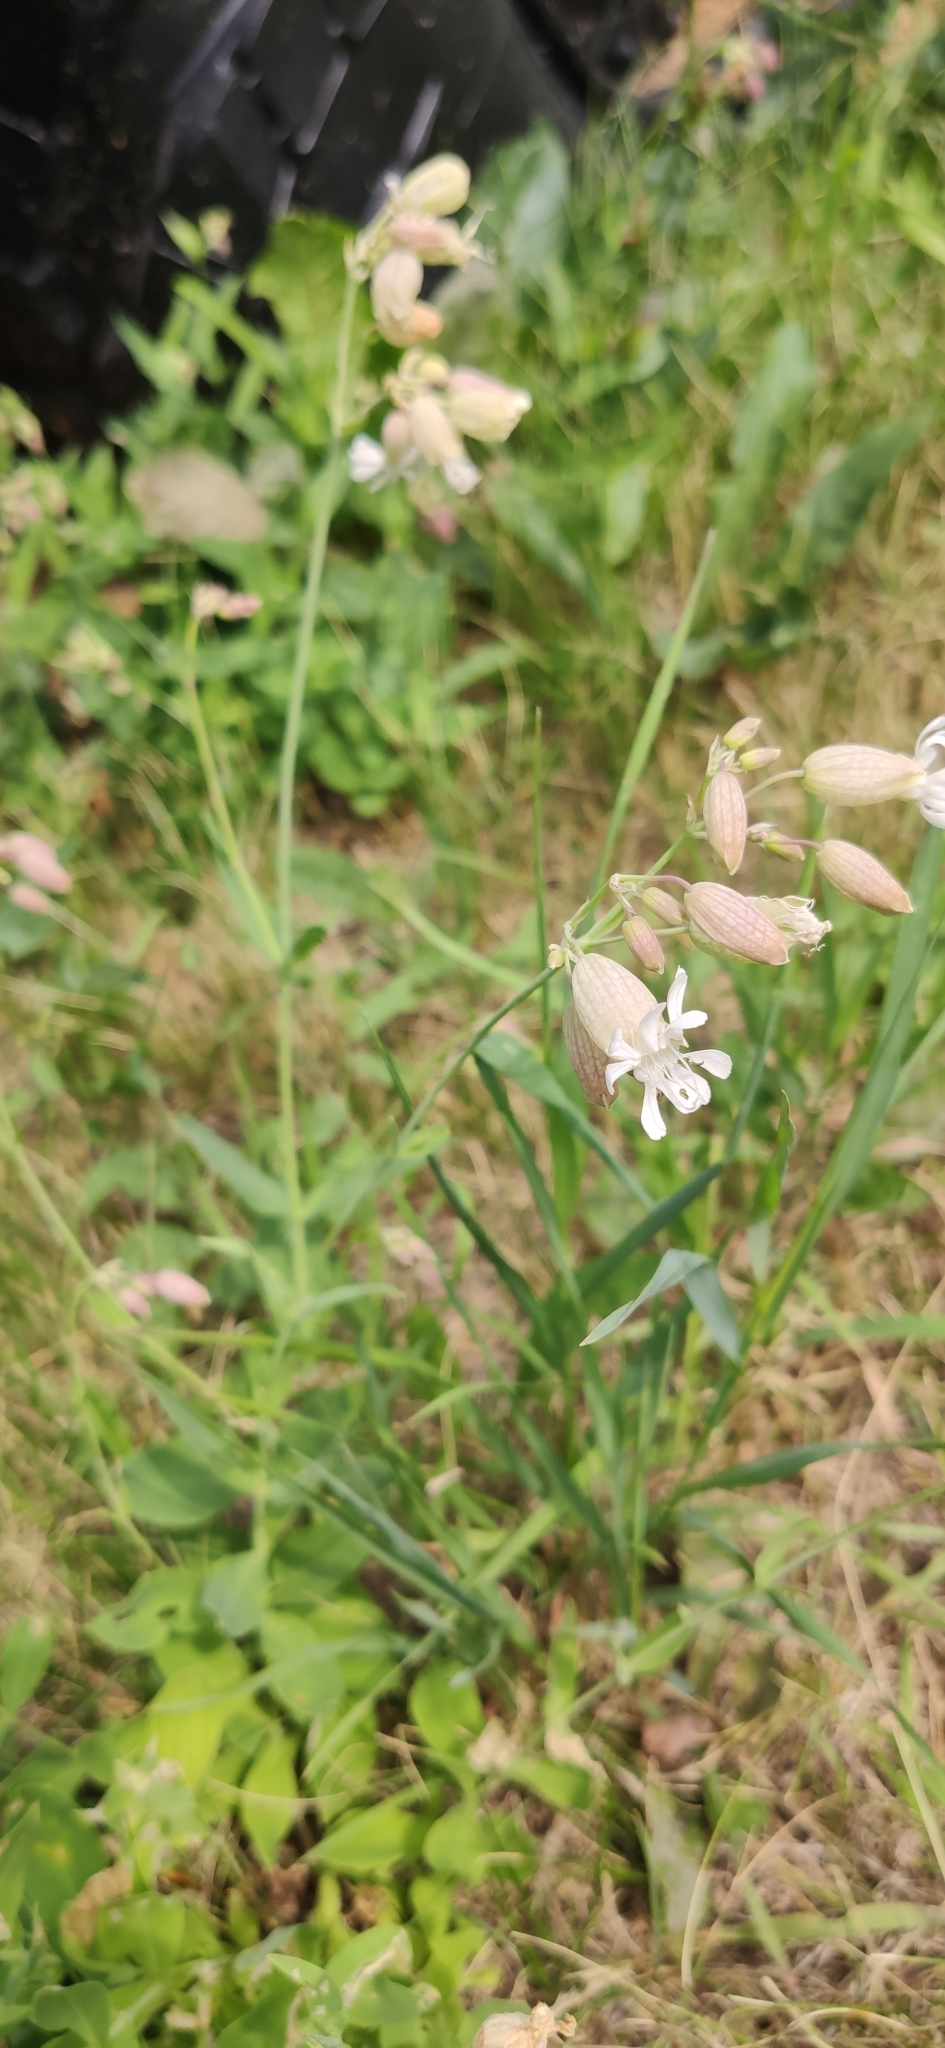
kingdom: Plantae
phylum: Tracheophyta
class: Magnoliopsida
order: Caryophyllales
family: Caryophyllaceae
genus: Silene
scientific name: Silene vulgaris
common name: Bladder campion
